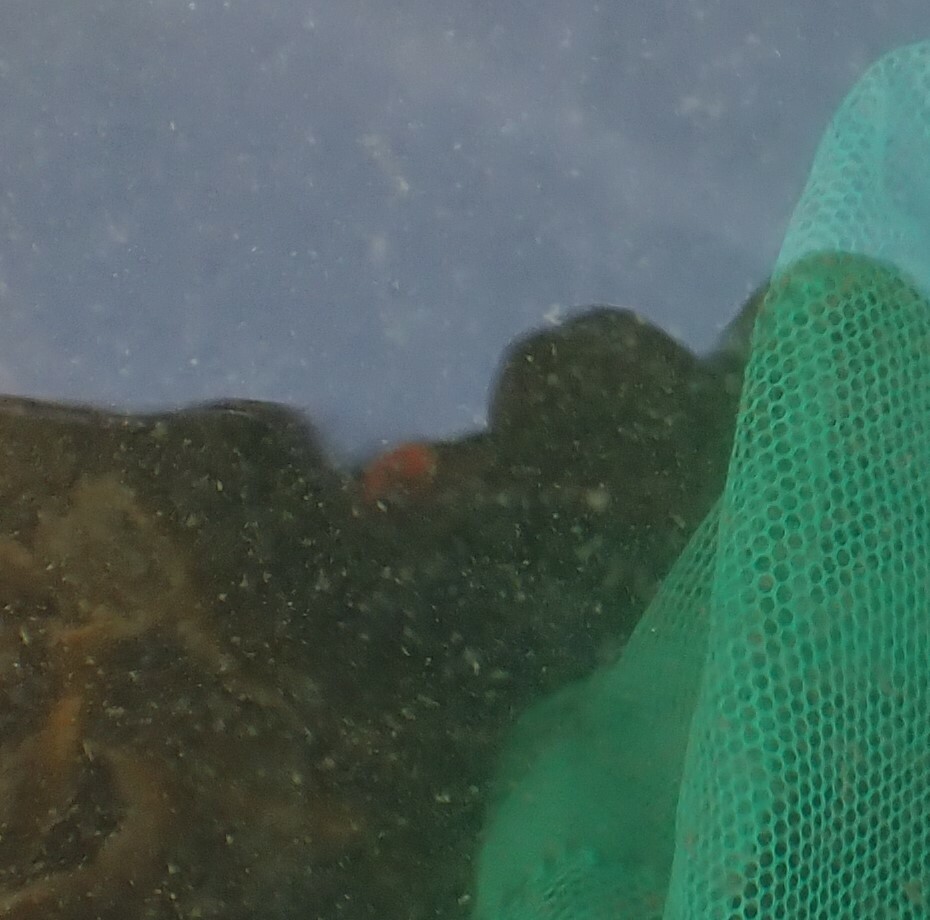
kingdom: Animalia
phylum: Mollusca
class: Gastropoda
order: Nudibranchia
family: Discodorididae
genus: Rostanga
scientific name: Rostanga pulchra
